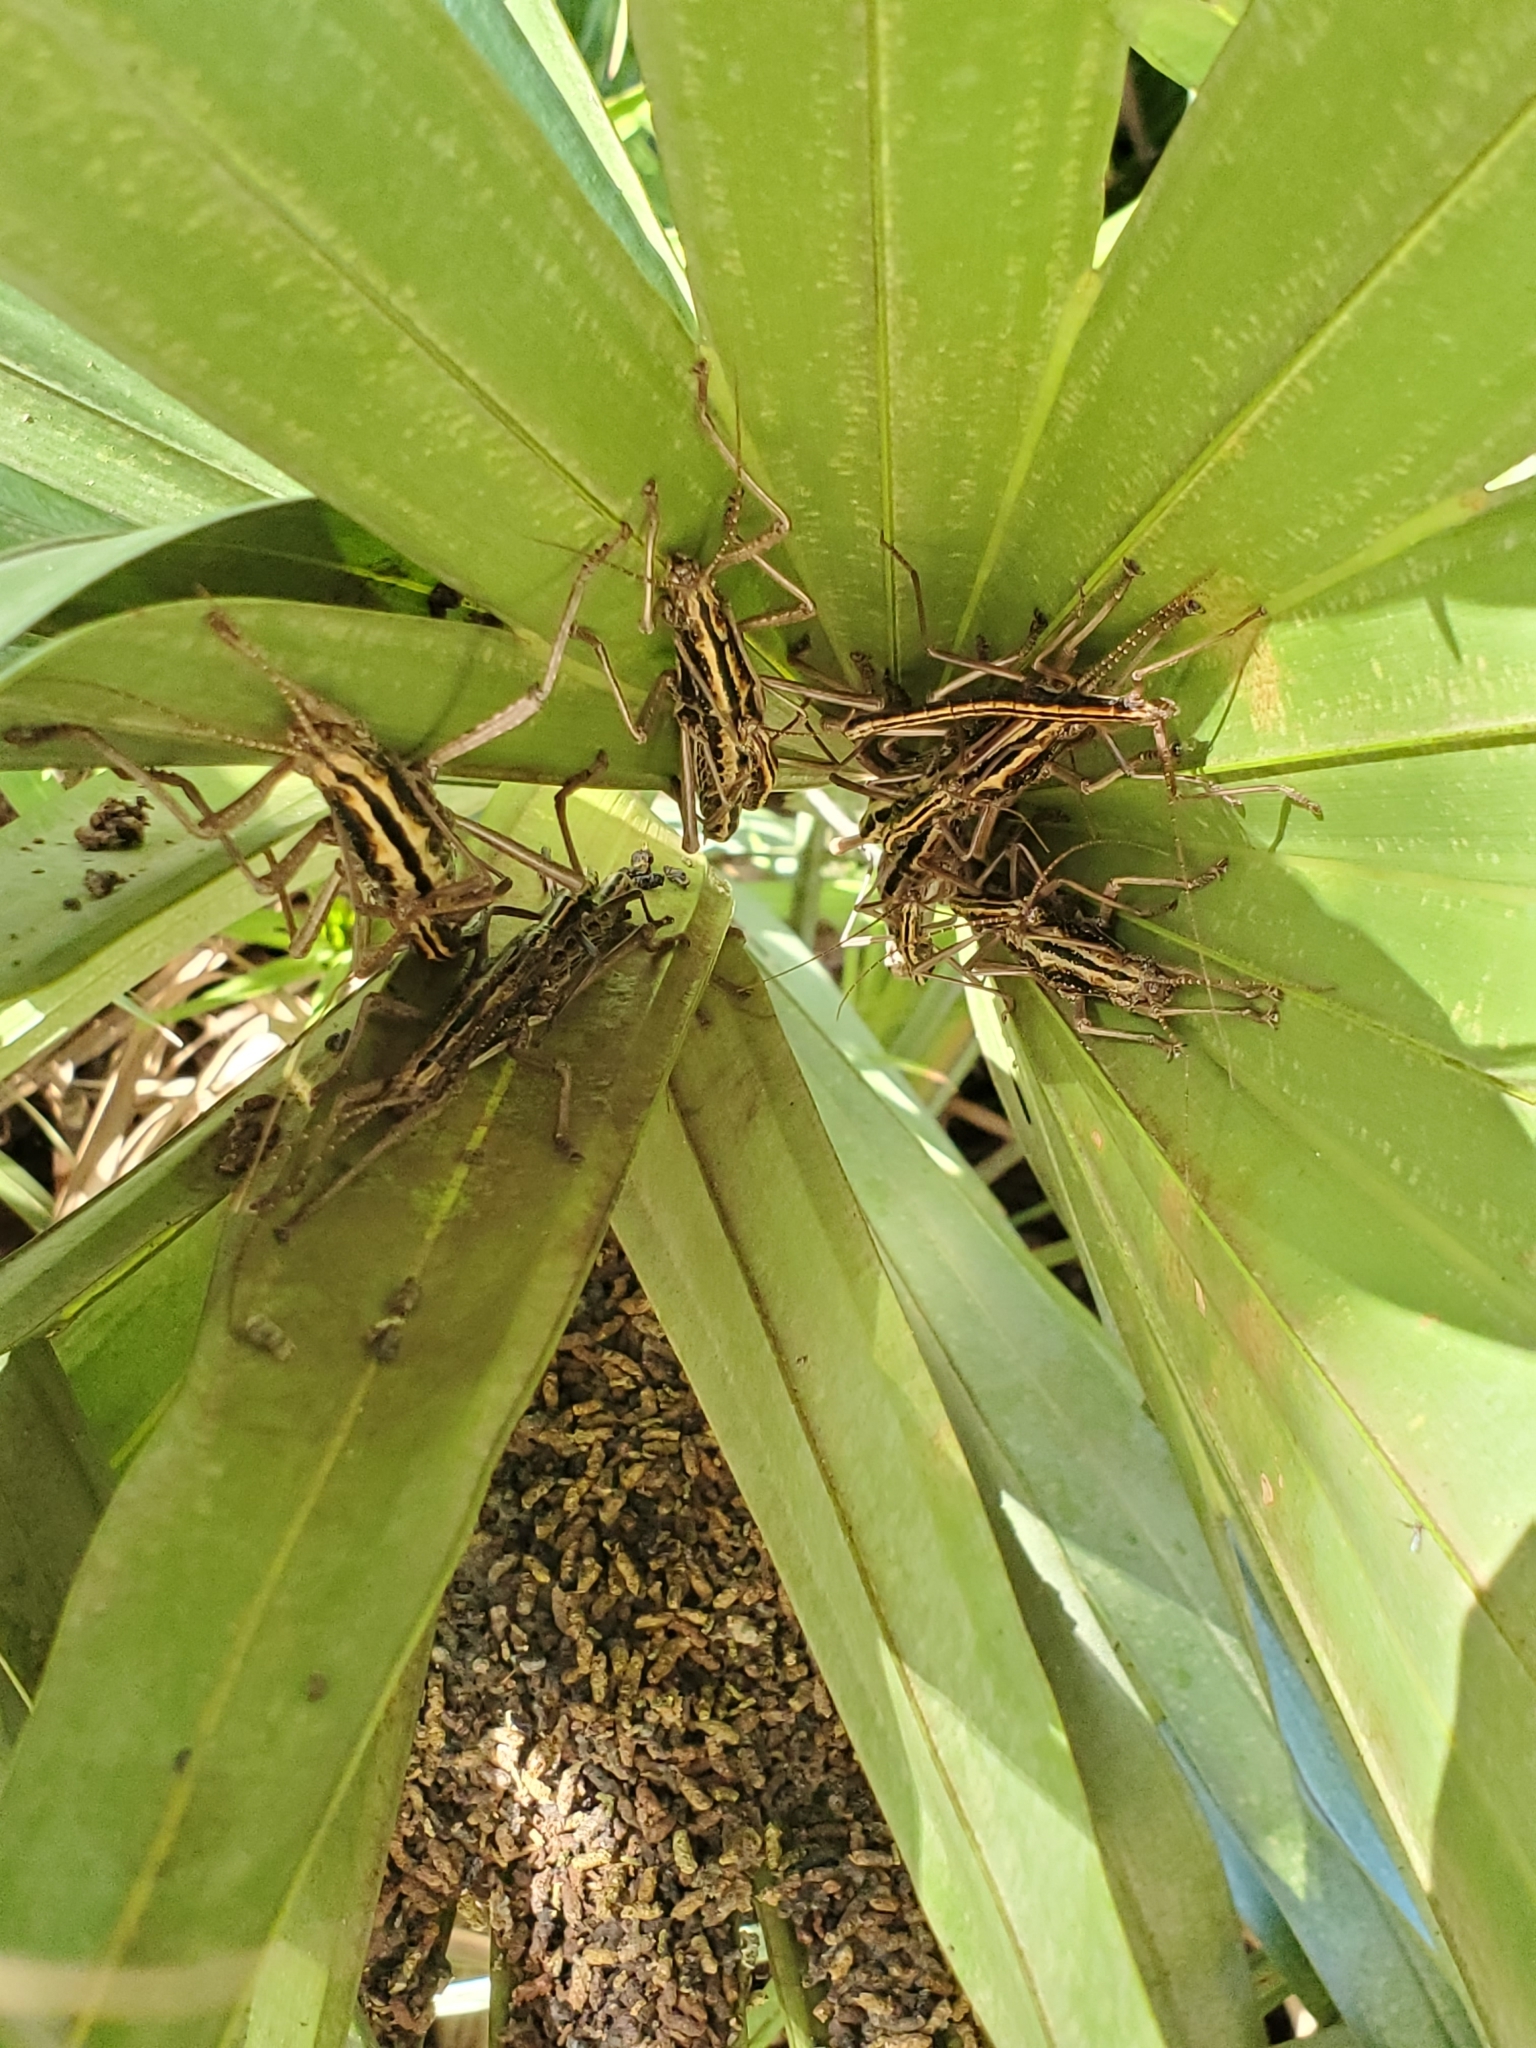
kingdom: Animalia
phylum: Arthropoda
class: Insecta
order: Phasmida
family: Pseudophasmatidae
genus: Anisomorpha
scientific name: Anisomorpha buprestoides
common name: Florida stick insect
